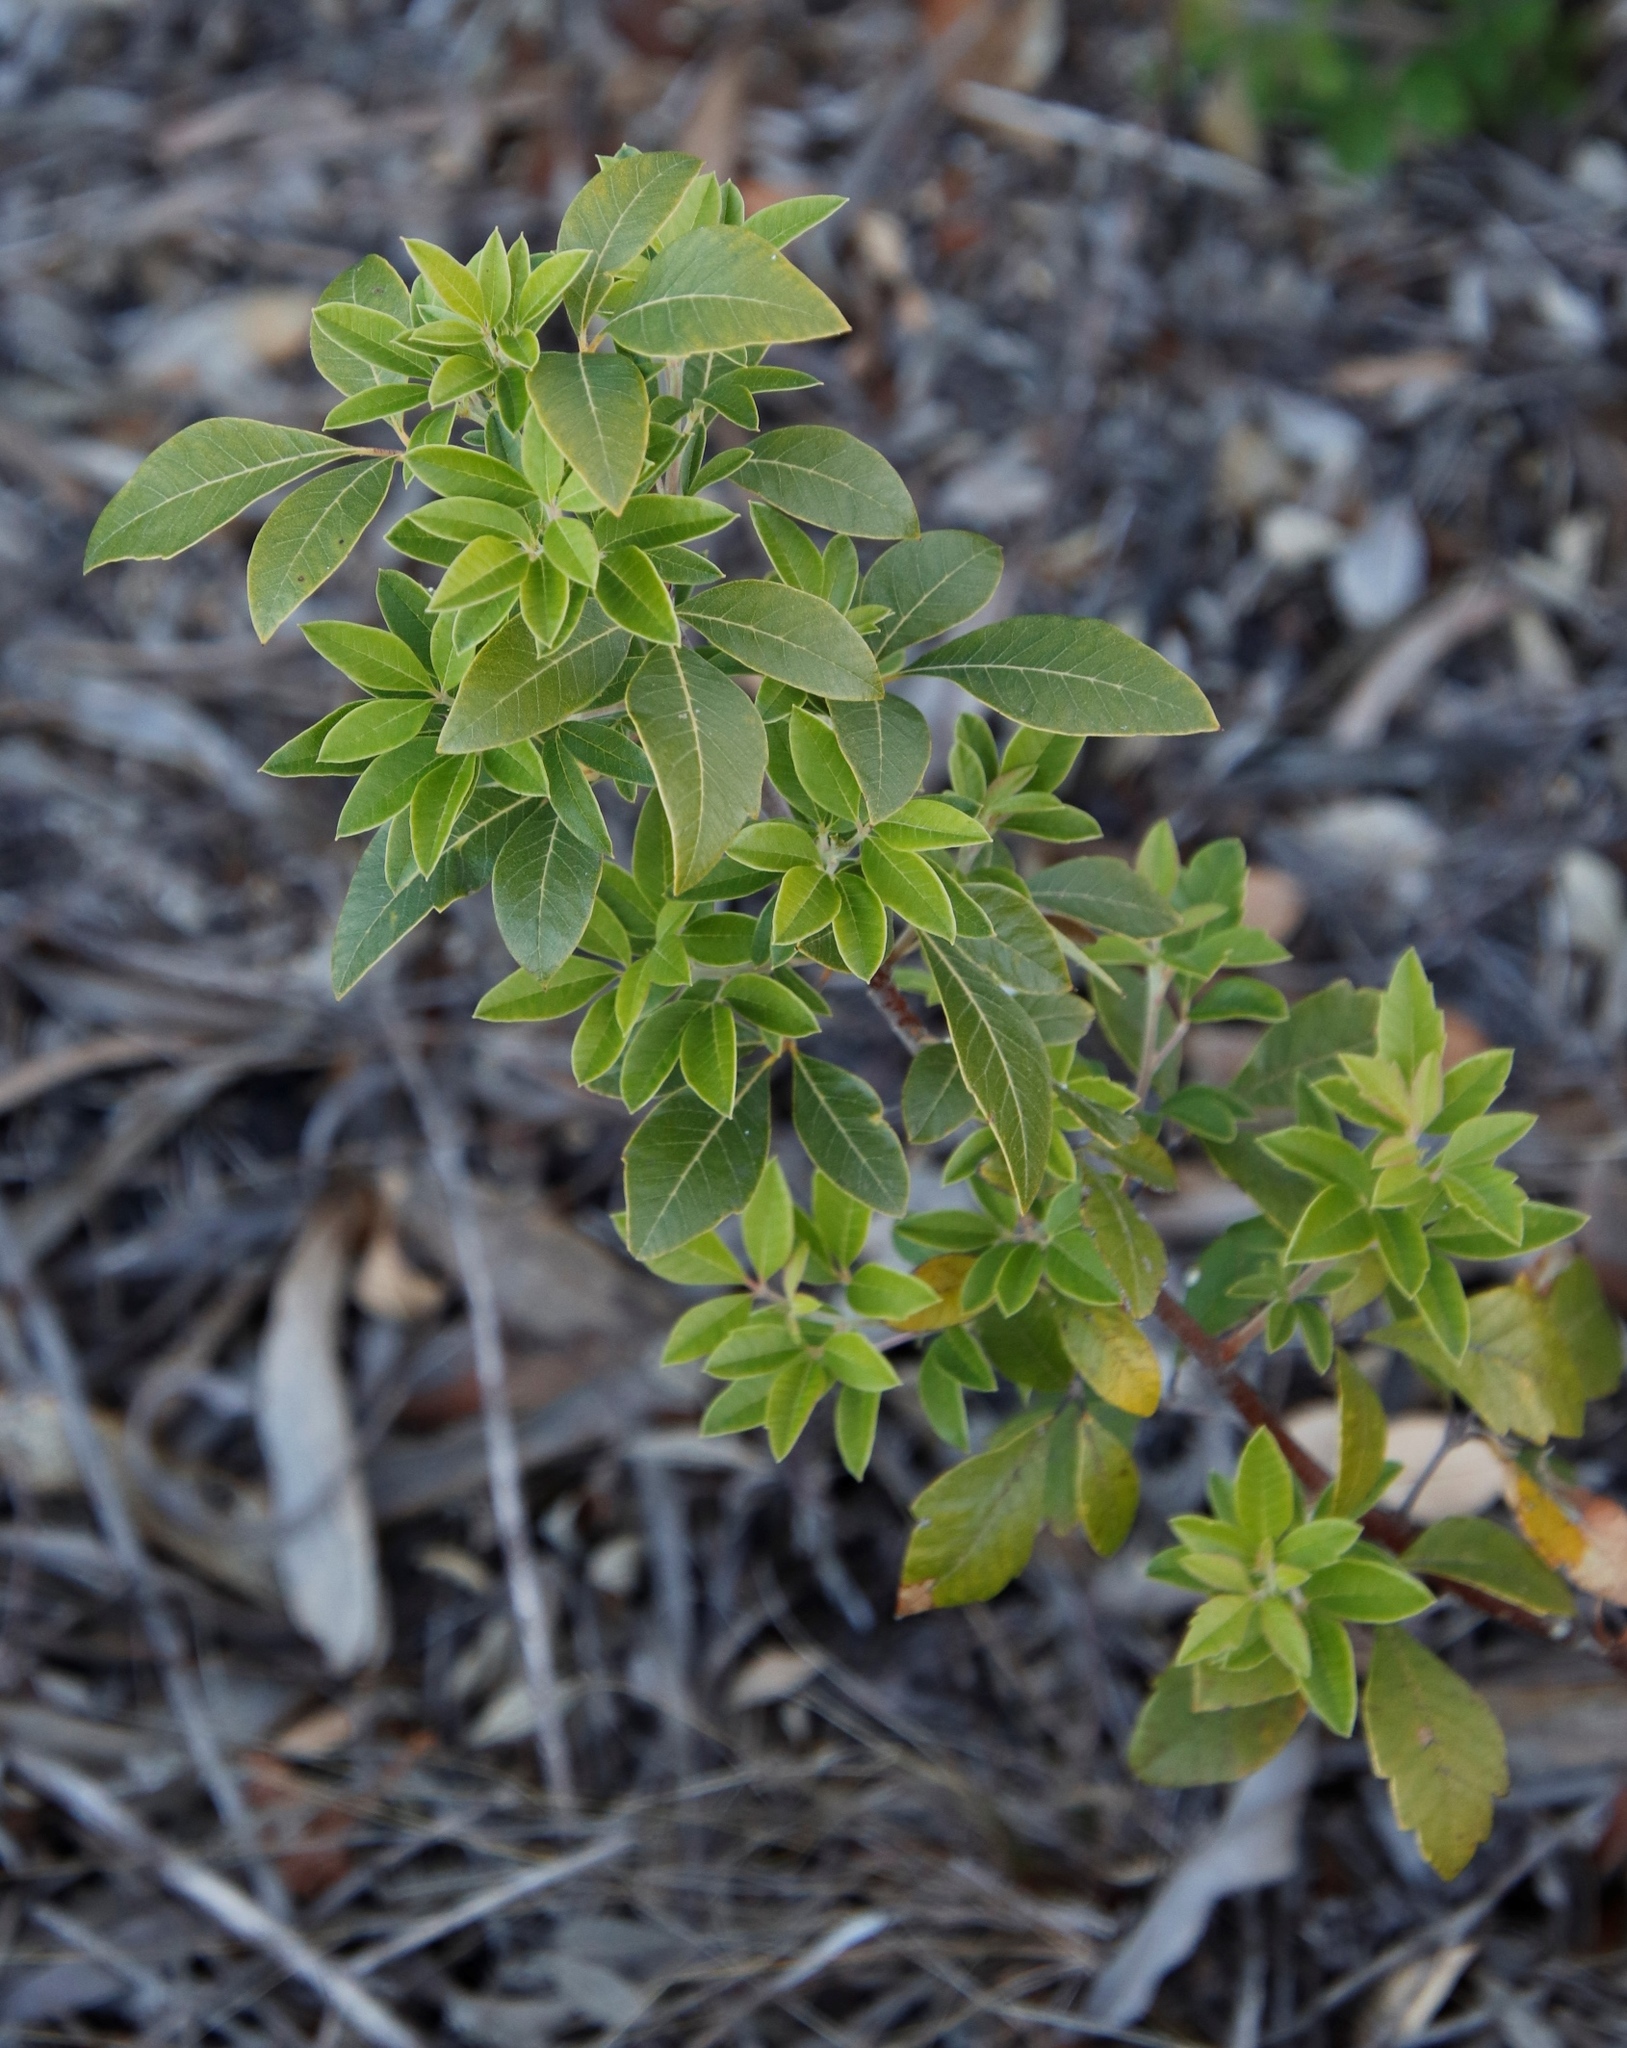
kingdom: Plantae
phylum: Tracheophyta
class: Magnoliopsida
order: Sapindales
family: Anacardiaceae
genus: Searsia
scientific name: Searsia tomentosa
